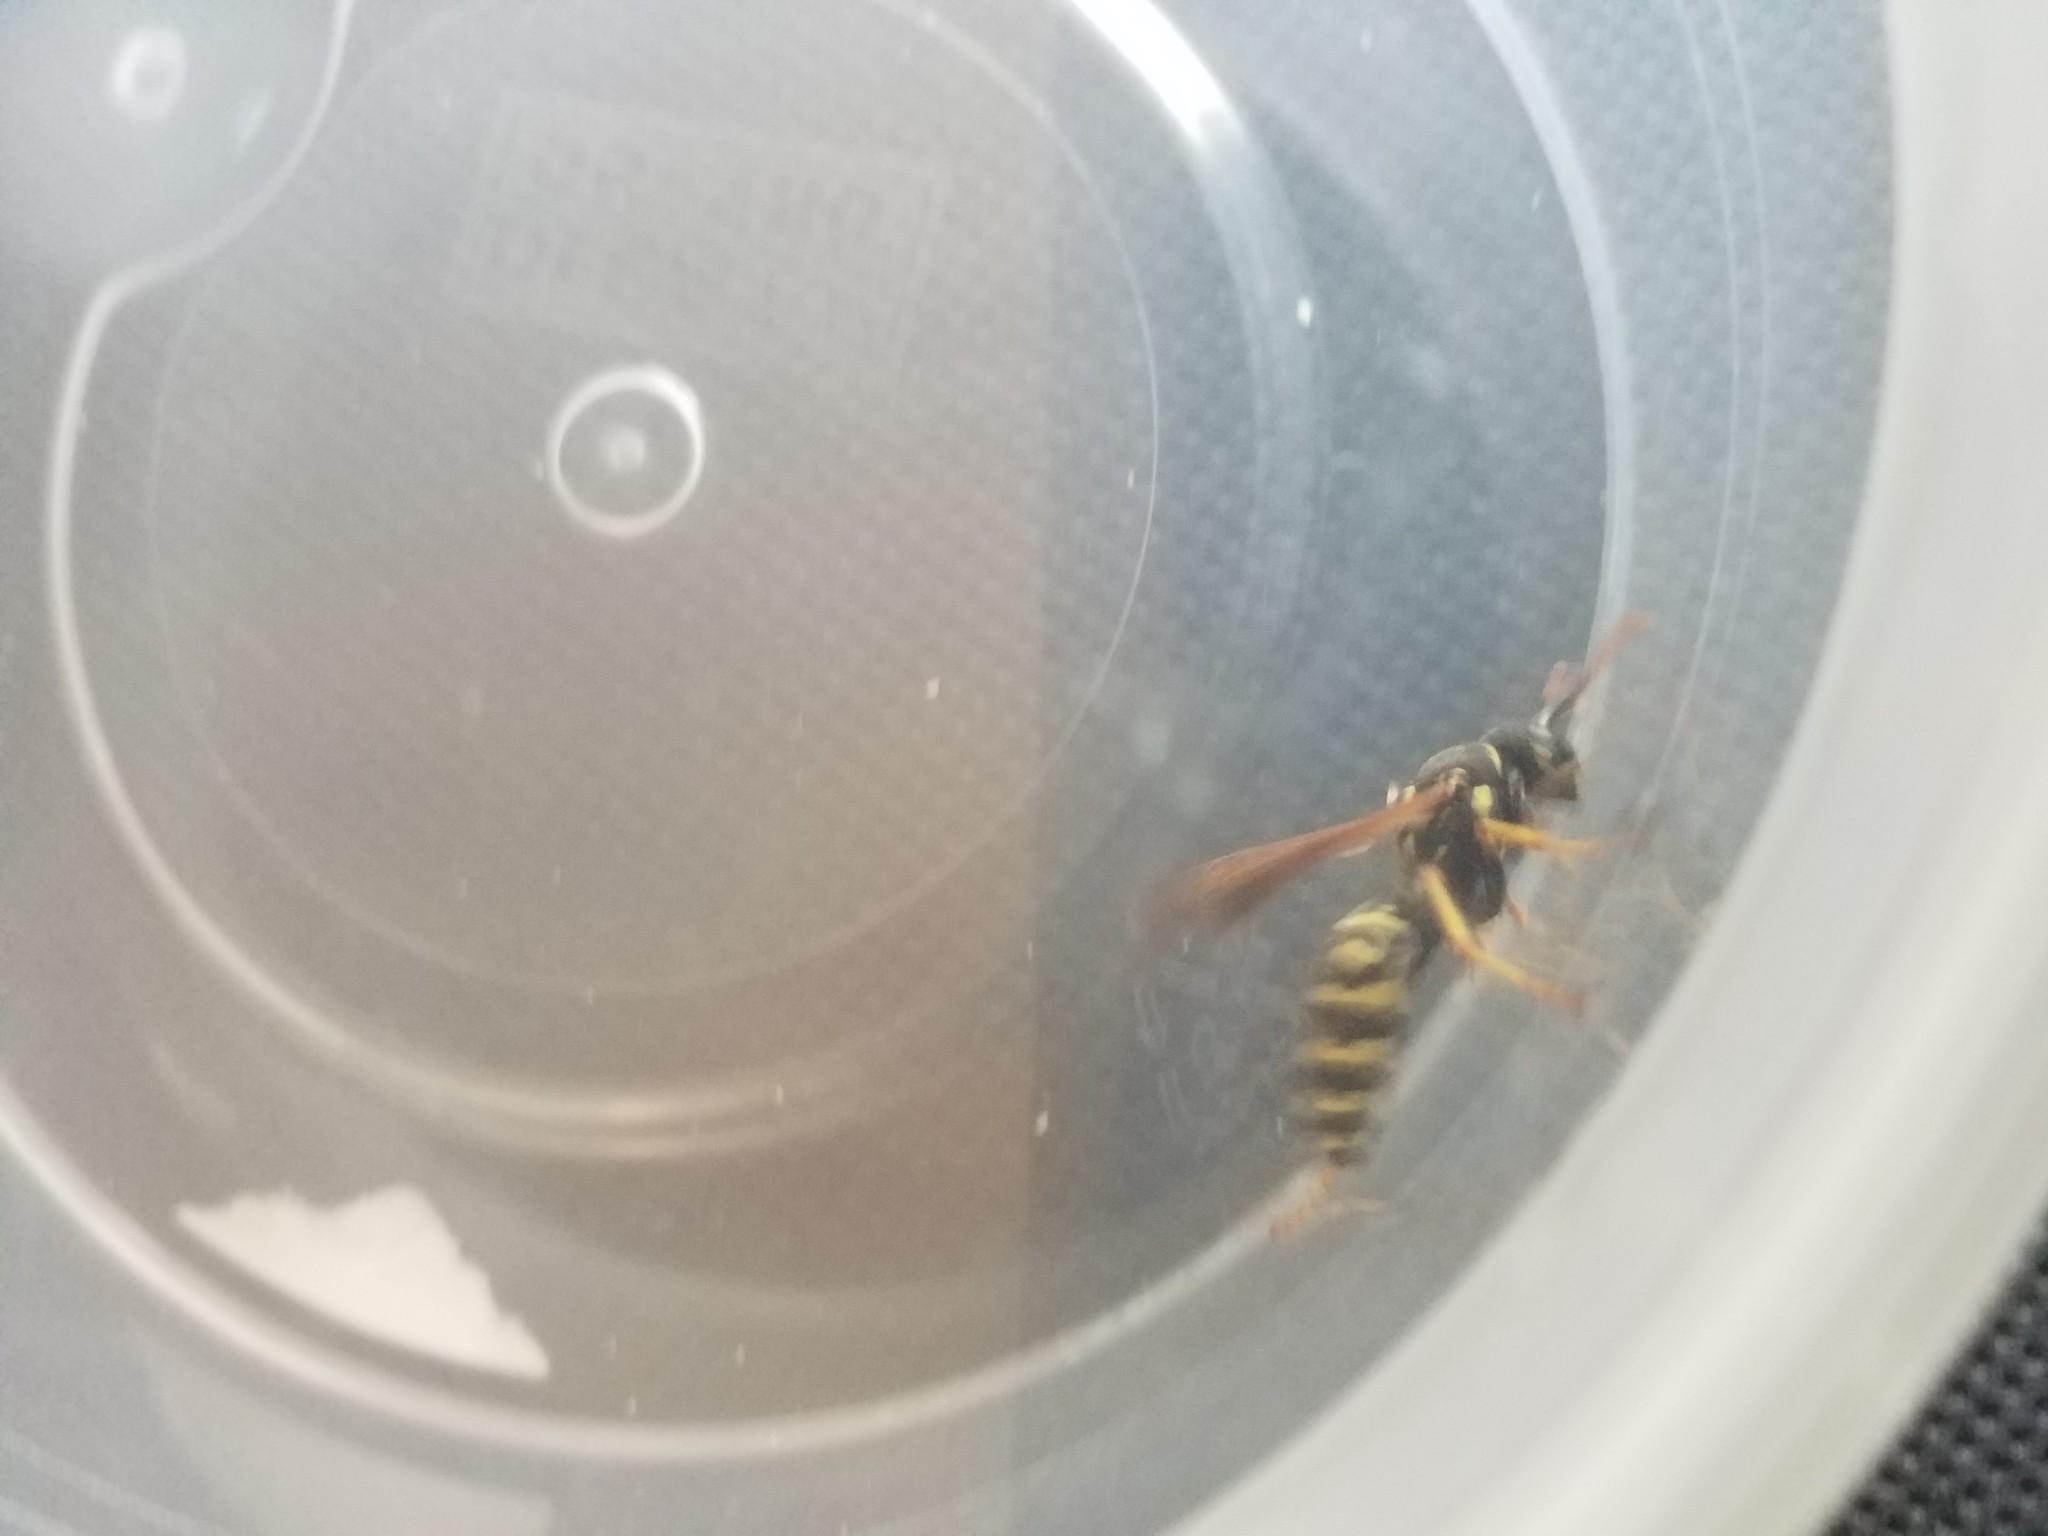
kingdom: Animalia
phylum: Arthropoda
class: Insecta
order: Hymenoptera
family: Eumenidae
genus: Polistes
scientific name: Polistes dominula
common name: Paper wasp
